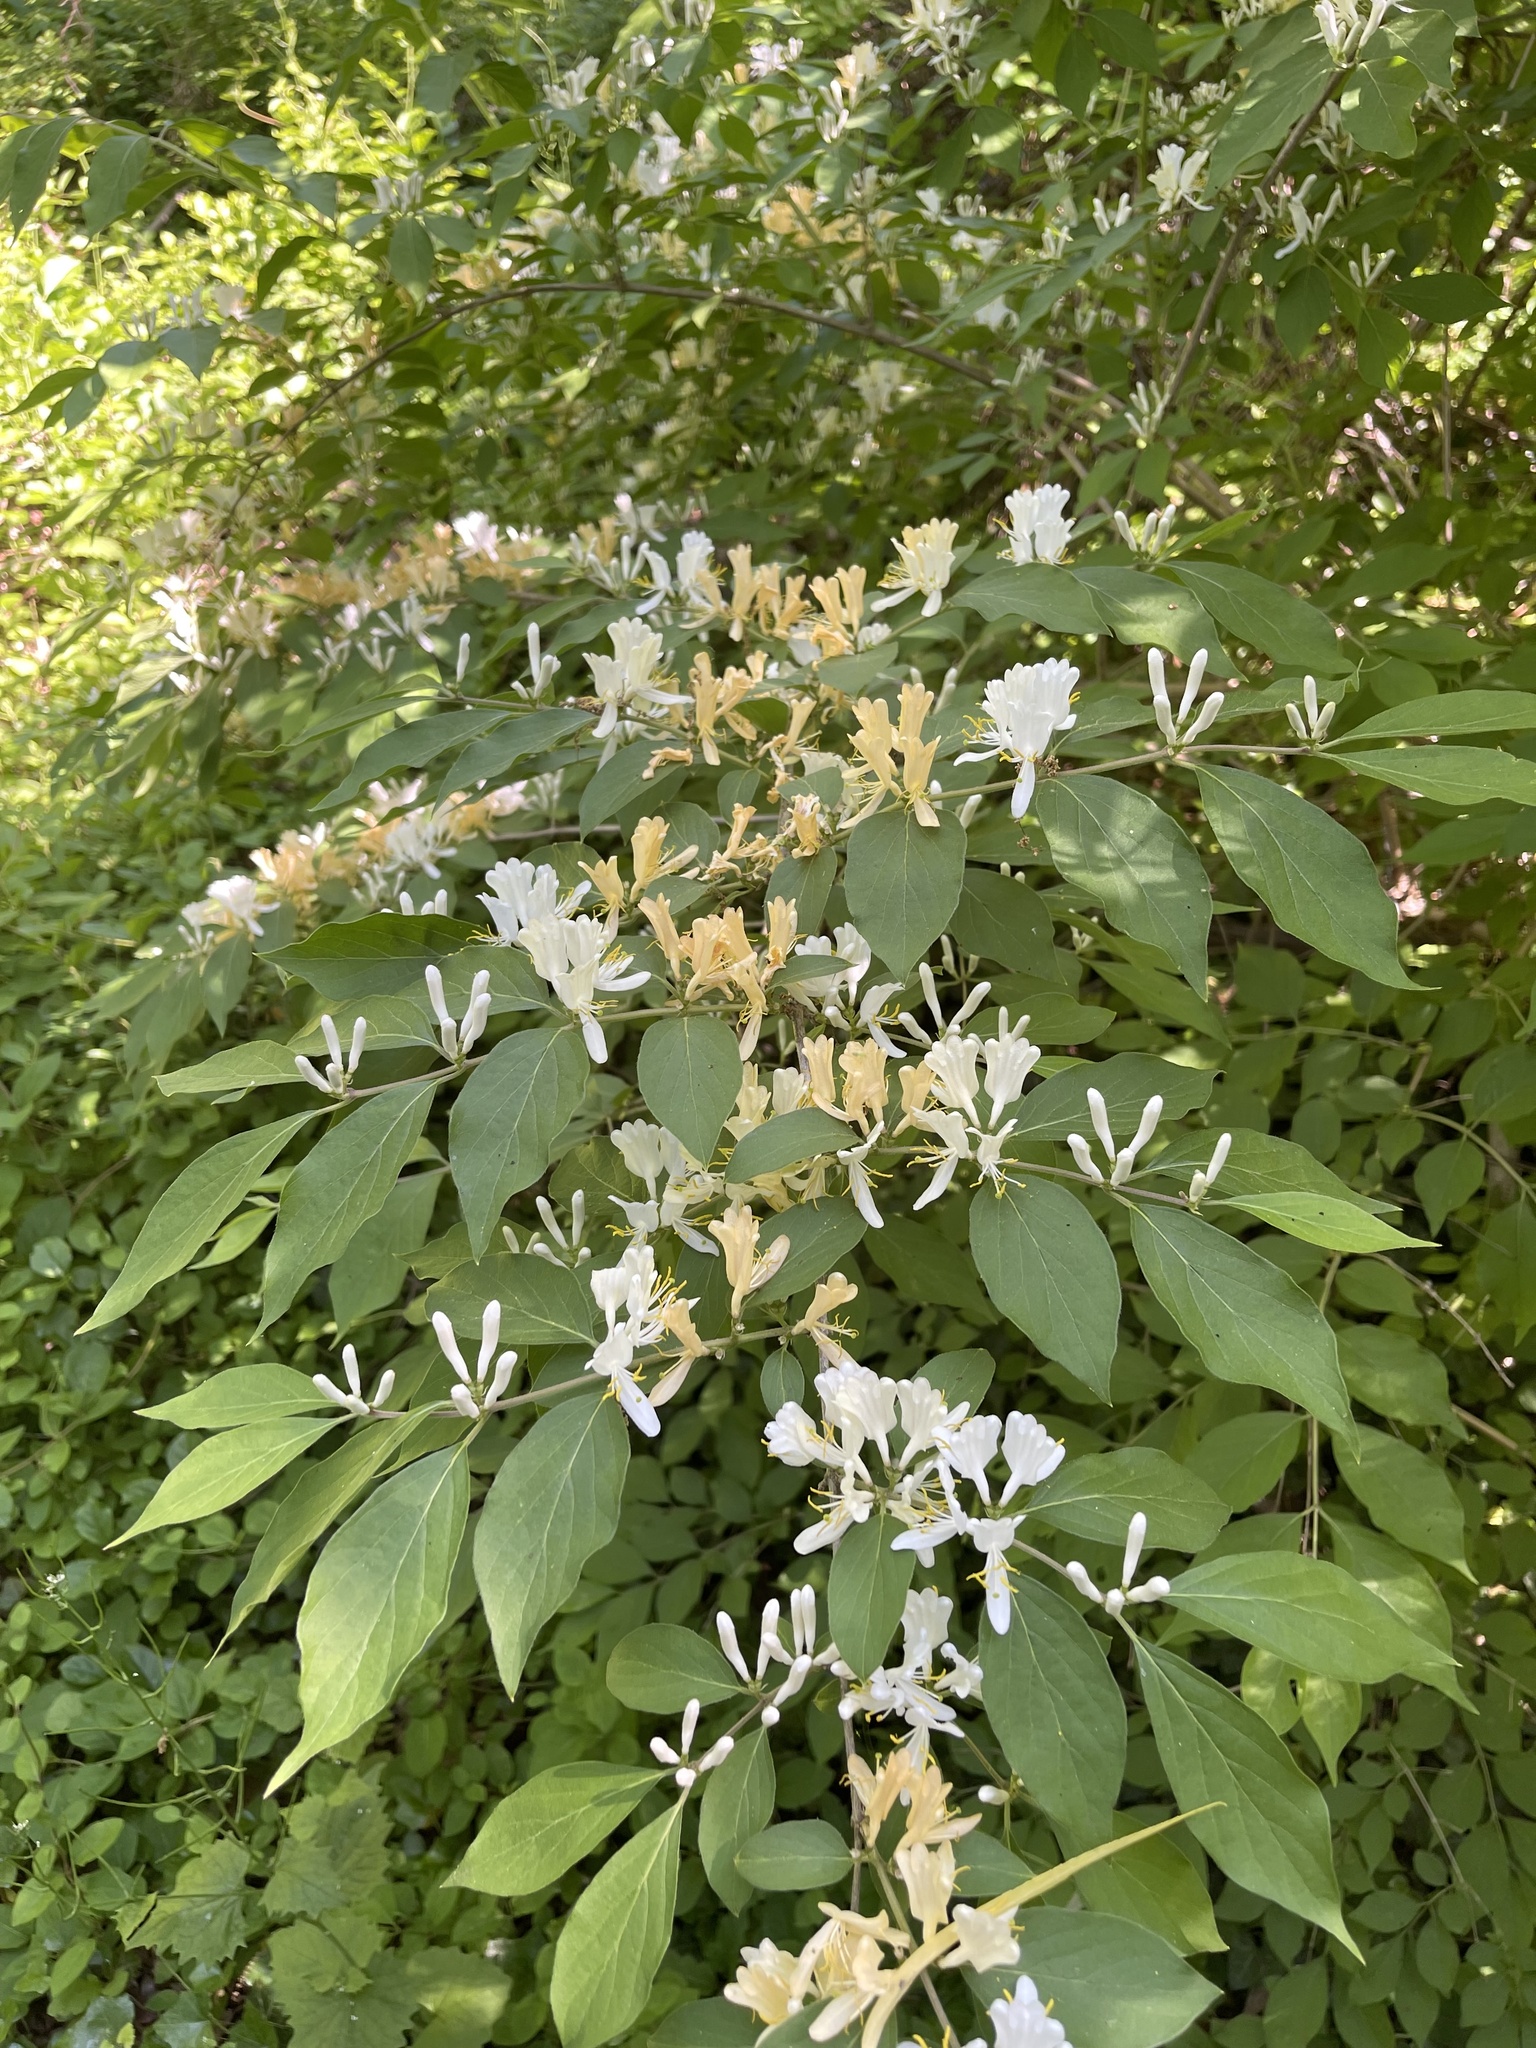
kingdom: Plantae
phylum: Tracheophyta
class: Magnoliopsida
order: Dipsacales
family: Caprifoliaceae
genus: Lonicera
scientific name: Lonicera maackii
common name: Amur honeysuckle
